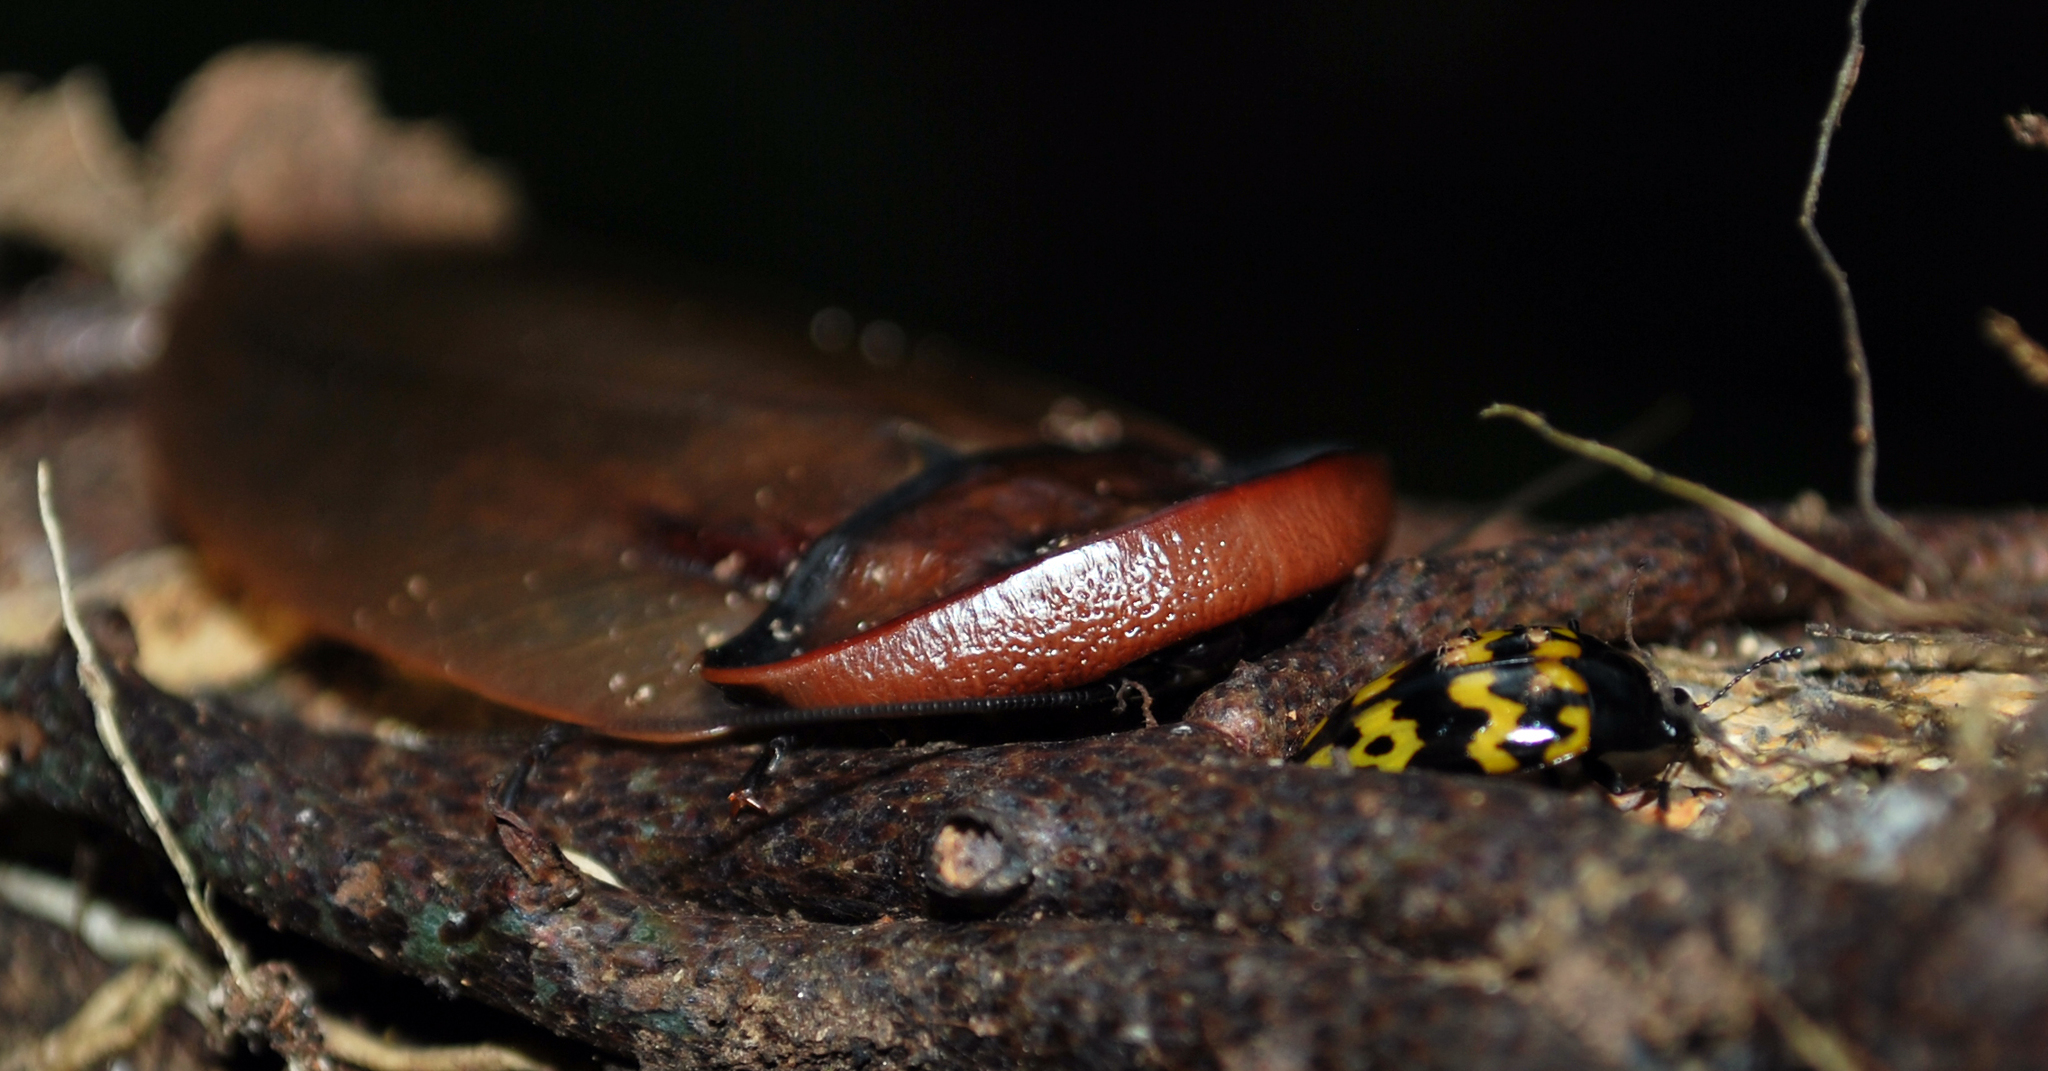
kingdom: Animalia
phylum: Arthropoda
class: Insecta
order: Coleoptera
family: Erotylidae
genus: Iphiclus
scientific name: Iphiclus
